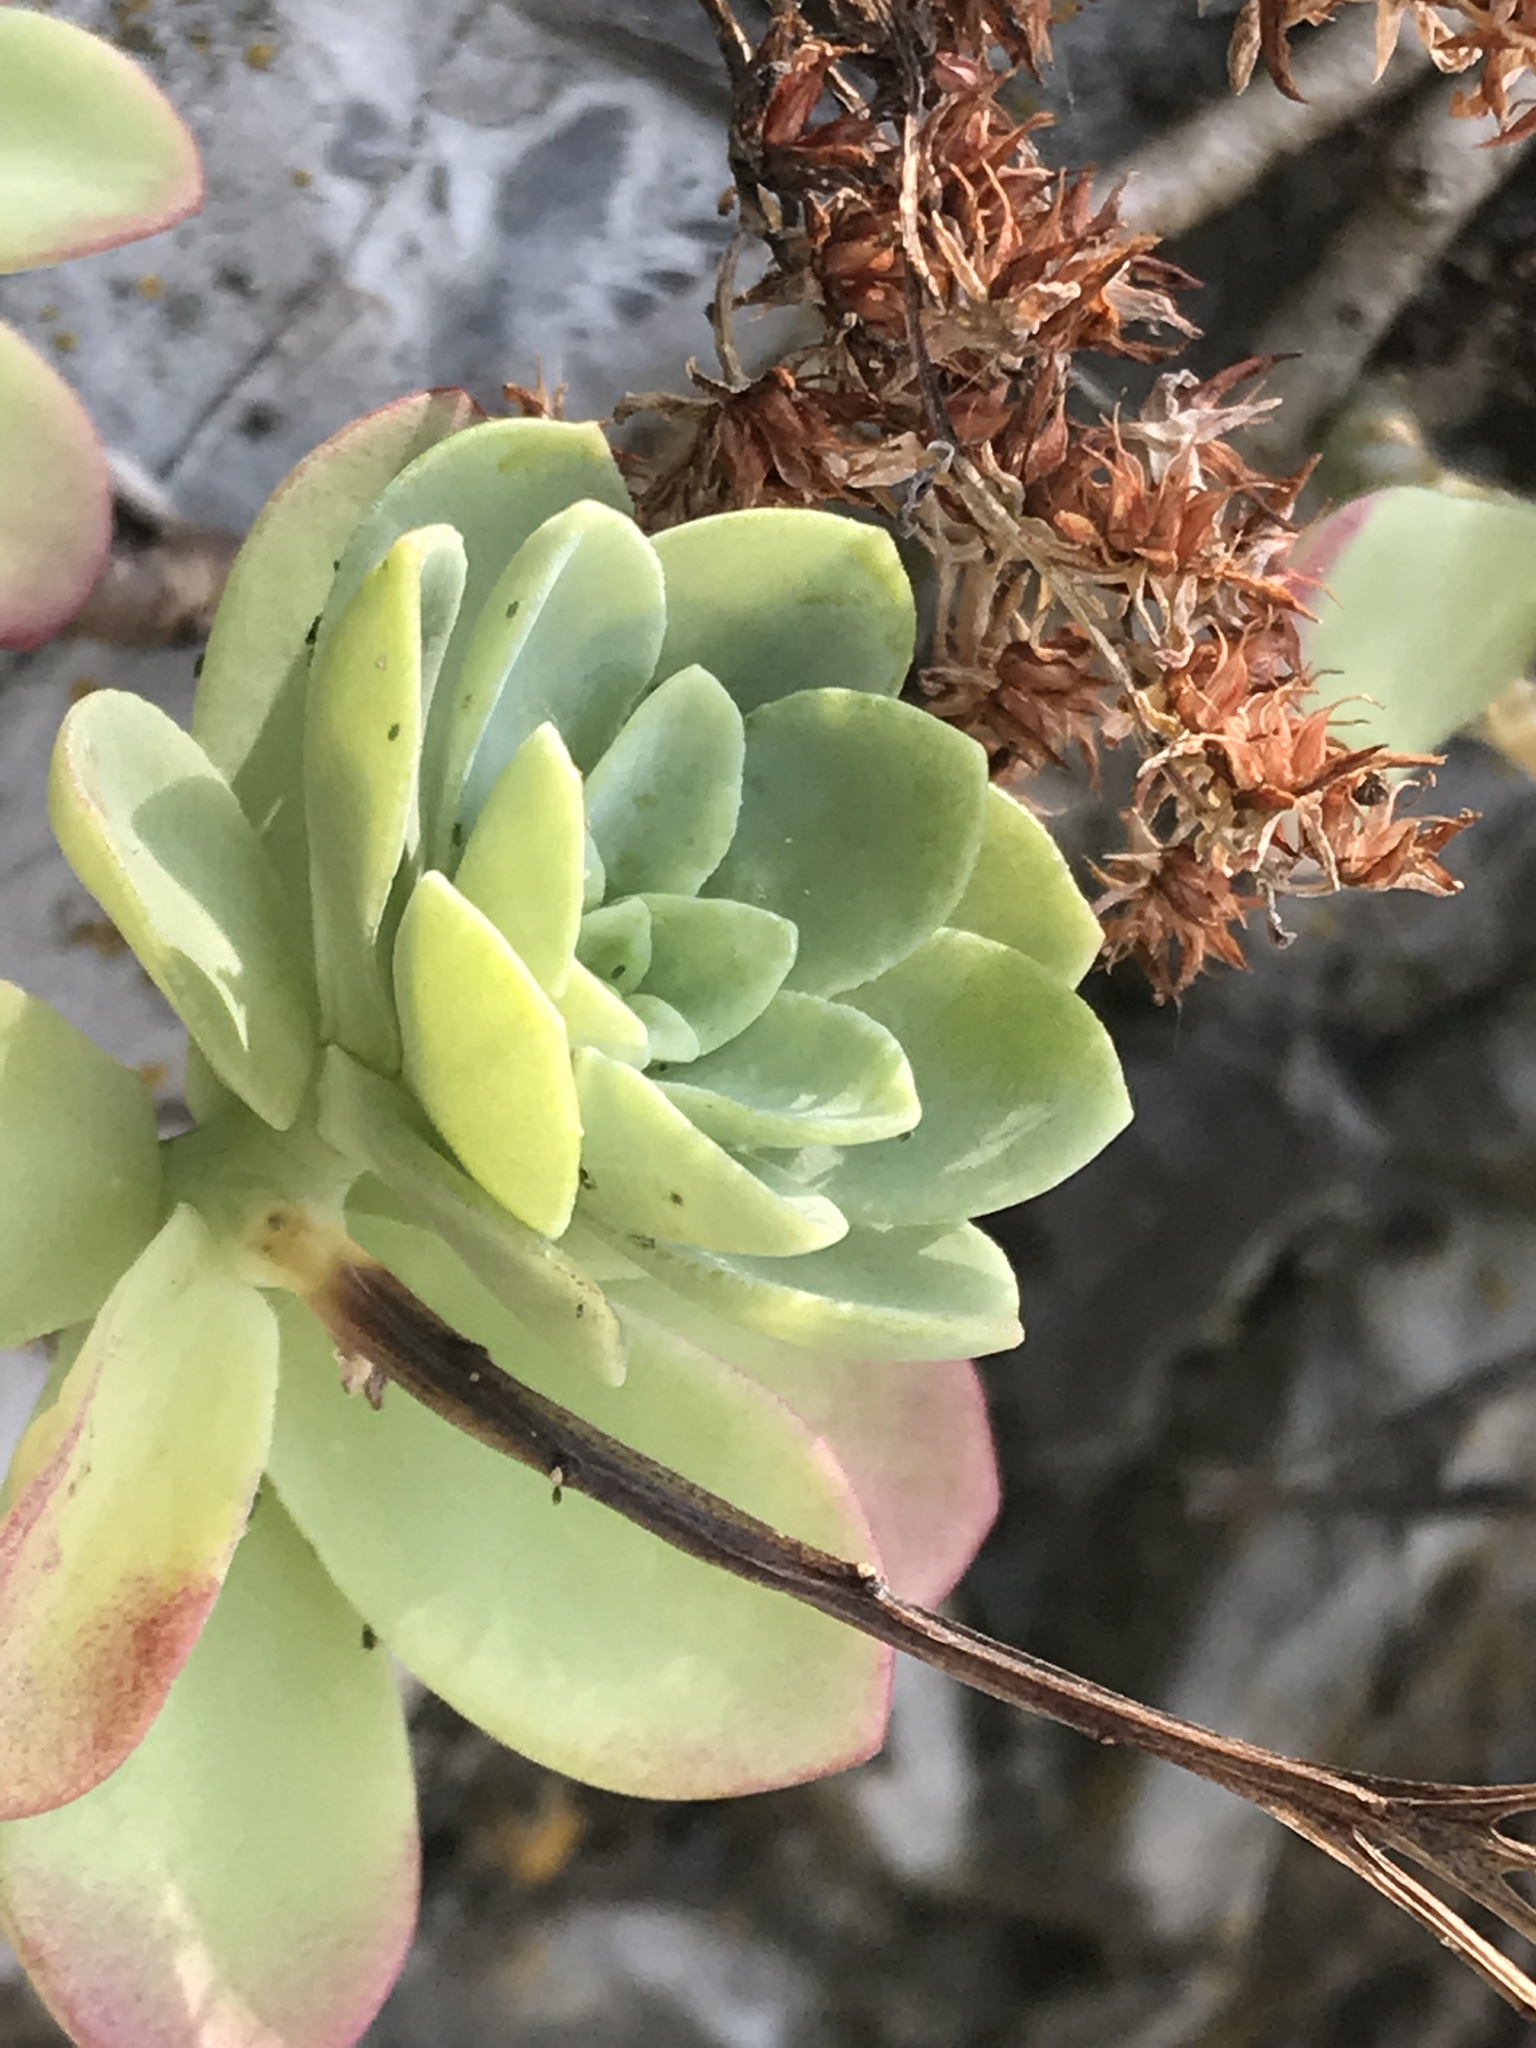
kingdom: Plantae
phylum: Tracheophyta
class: Magnoliopsida
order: Saxifragales
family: Crassulaceae
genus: Sedum
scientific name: Sedum palmeri
